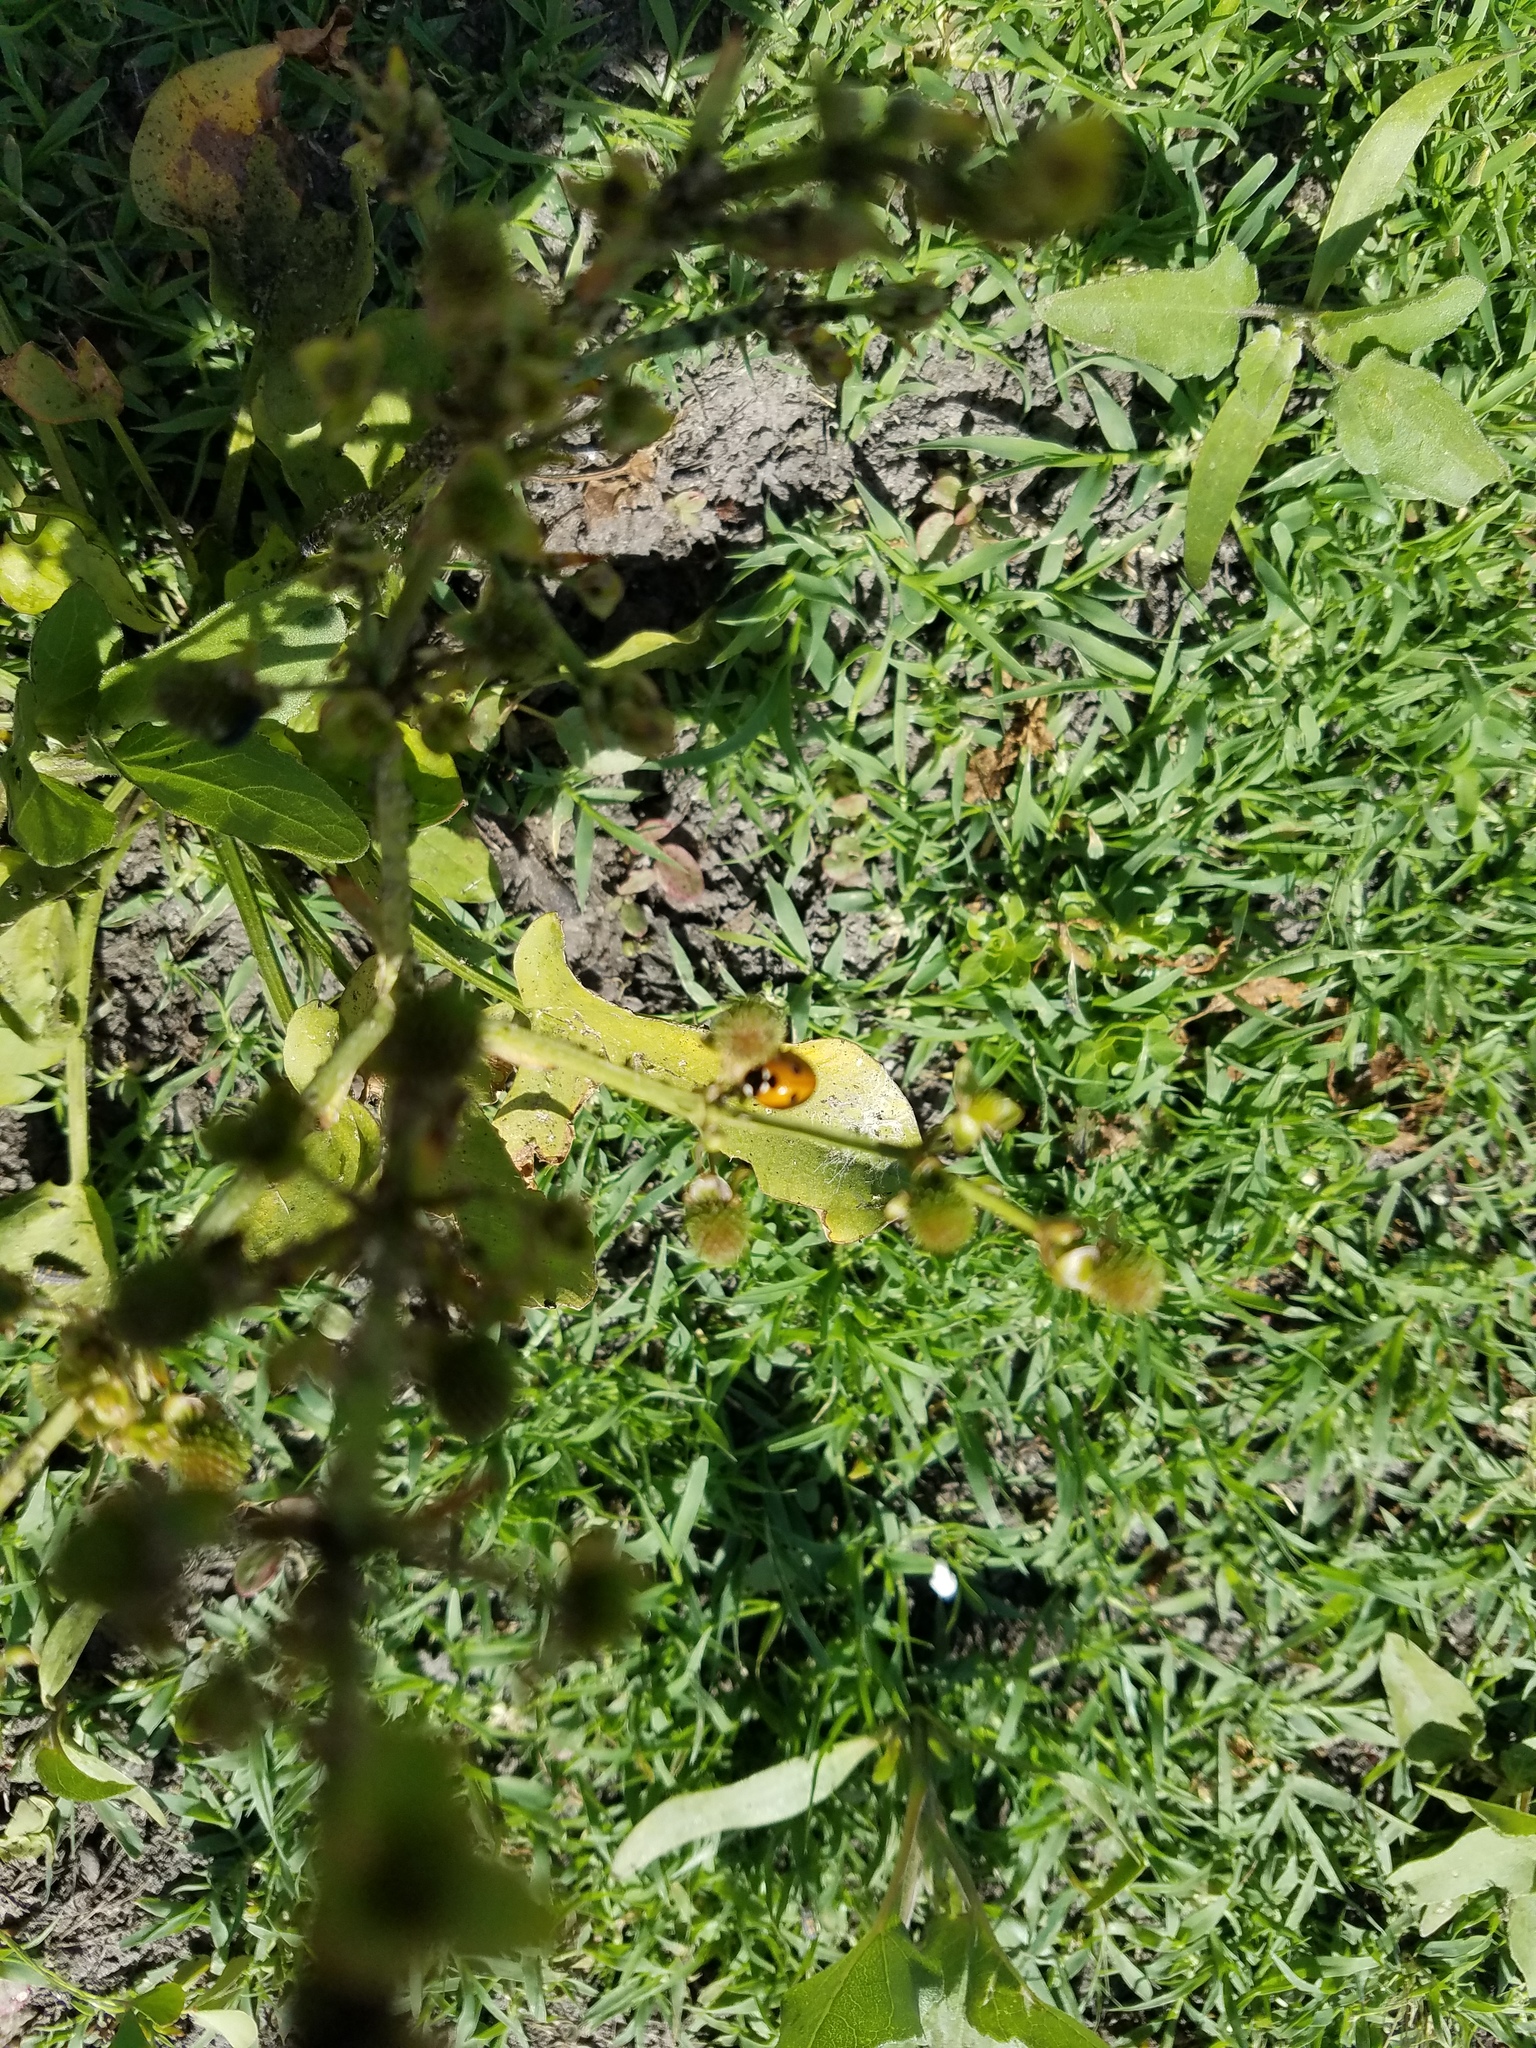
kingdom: Animalia
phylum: Arthropoda
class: Insecta
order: Coleoptera
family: Coccinellidae
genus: Coccinella
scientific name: Coccinella septempunctata
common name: Sevenspotted lady beetle
